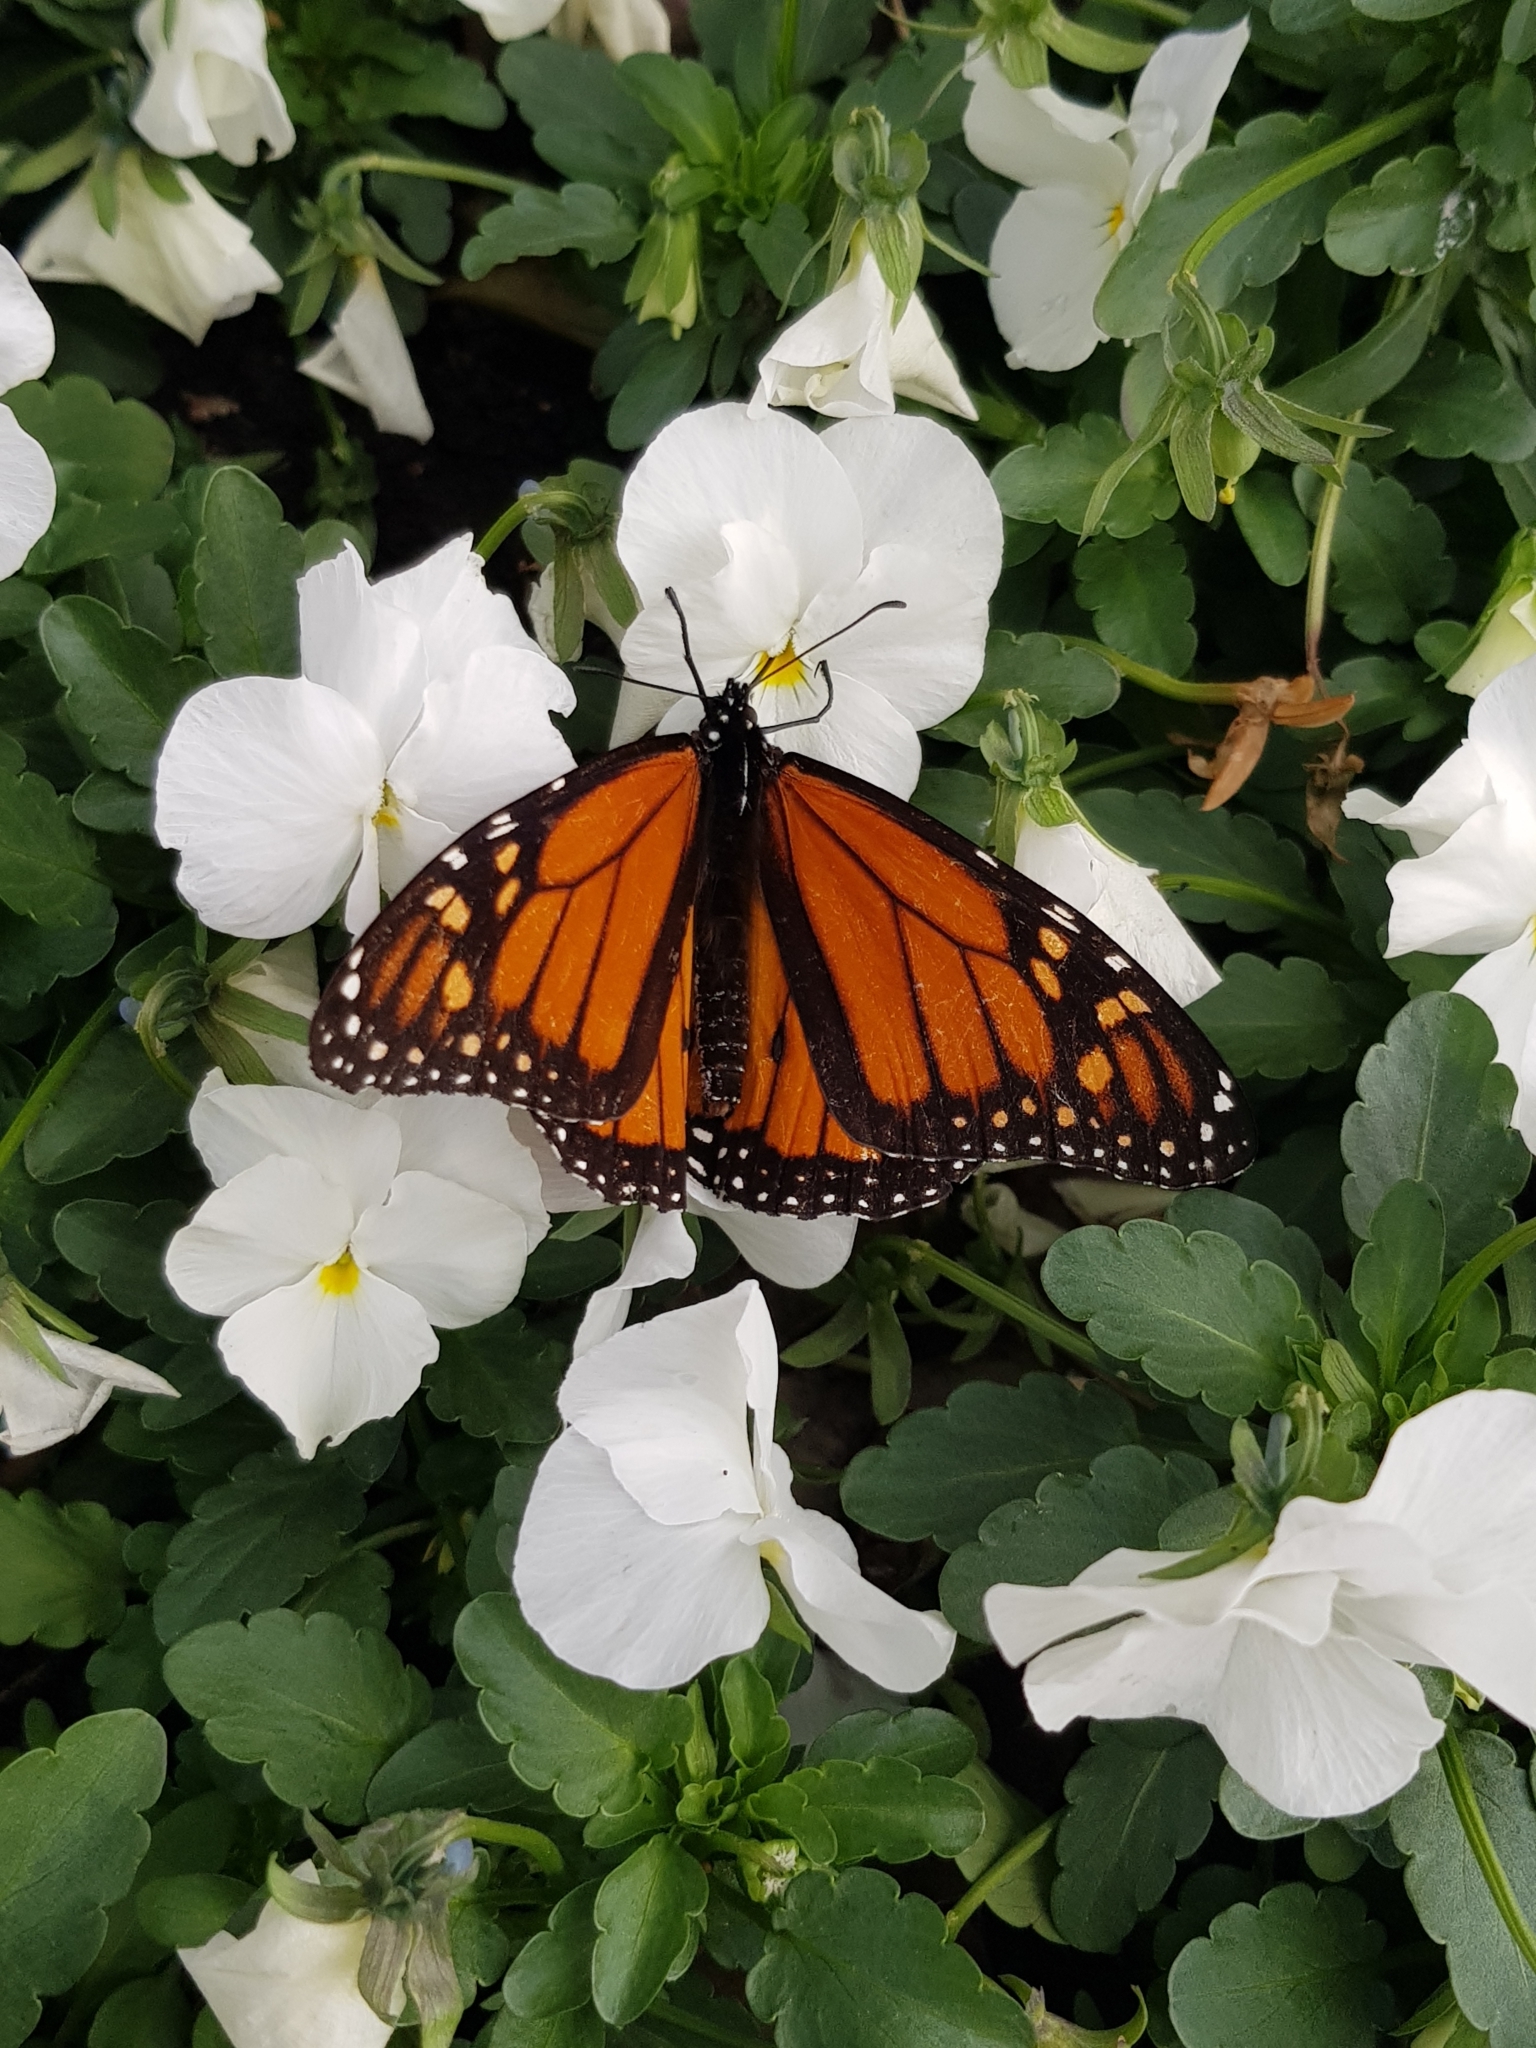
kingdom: Animalia
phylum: Arthropoda
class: Insecta
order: Lepidoptera
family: Nymphalidae
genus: Danaus
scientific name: Danaus plexippus
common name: Monarch
